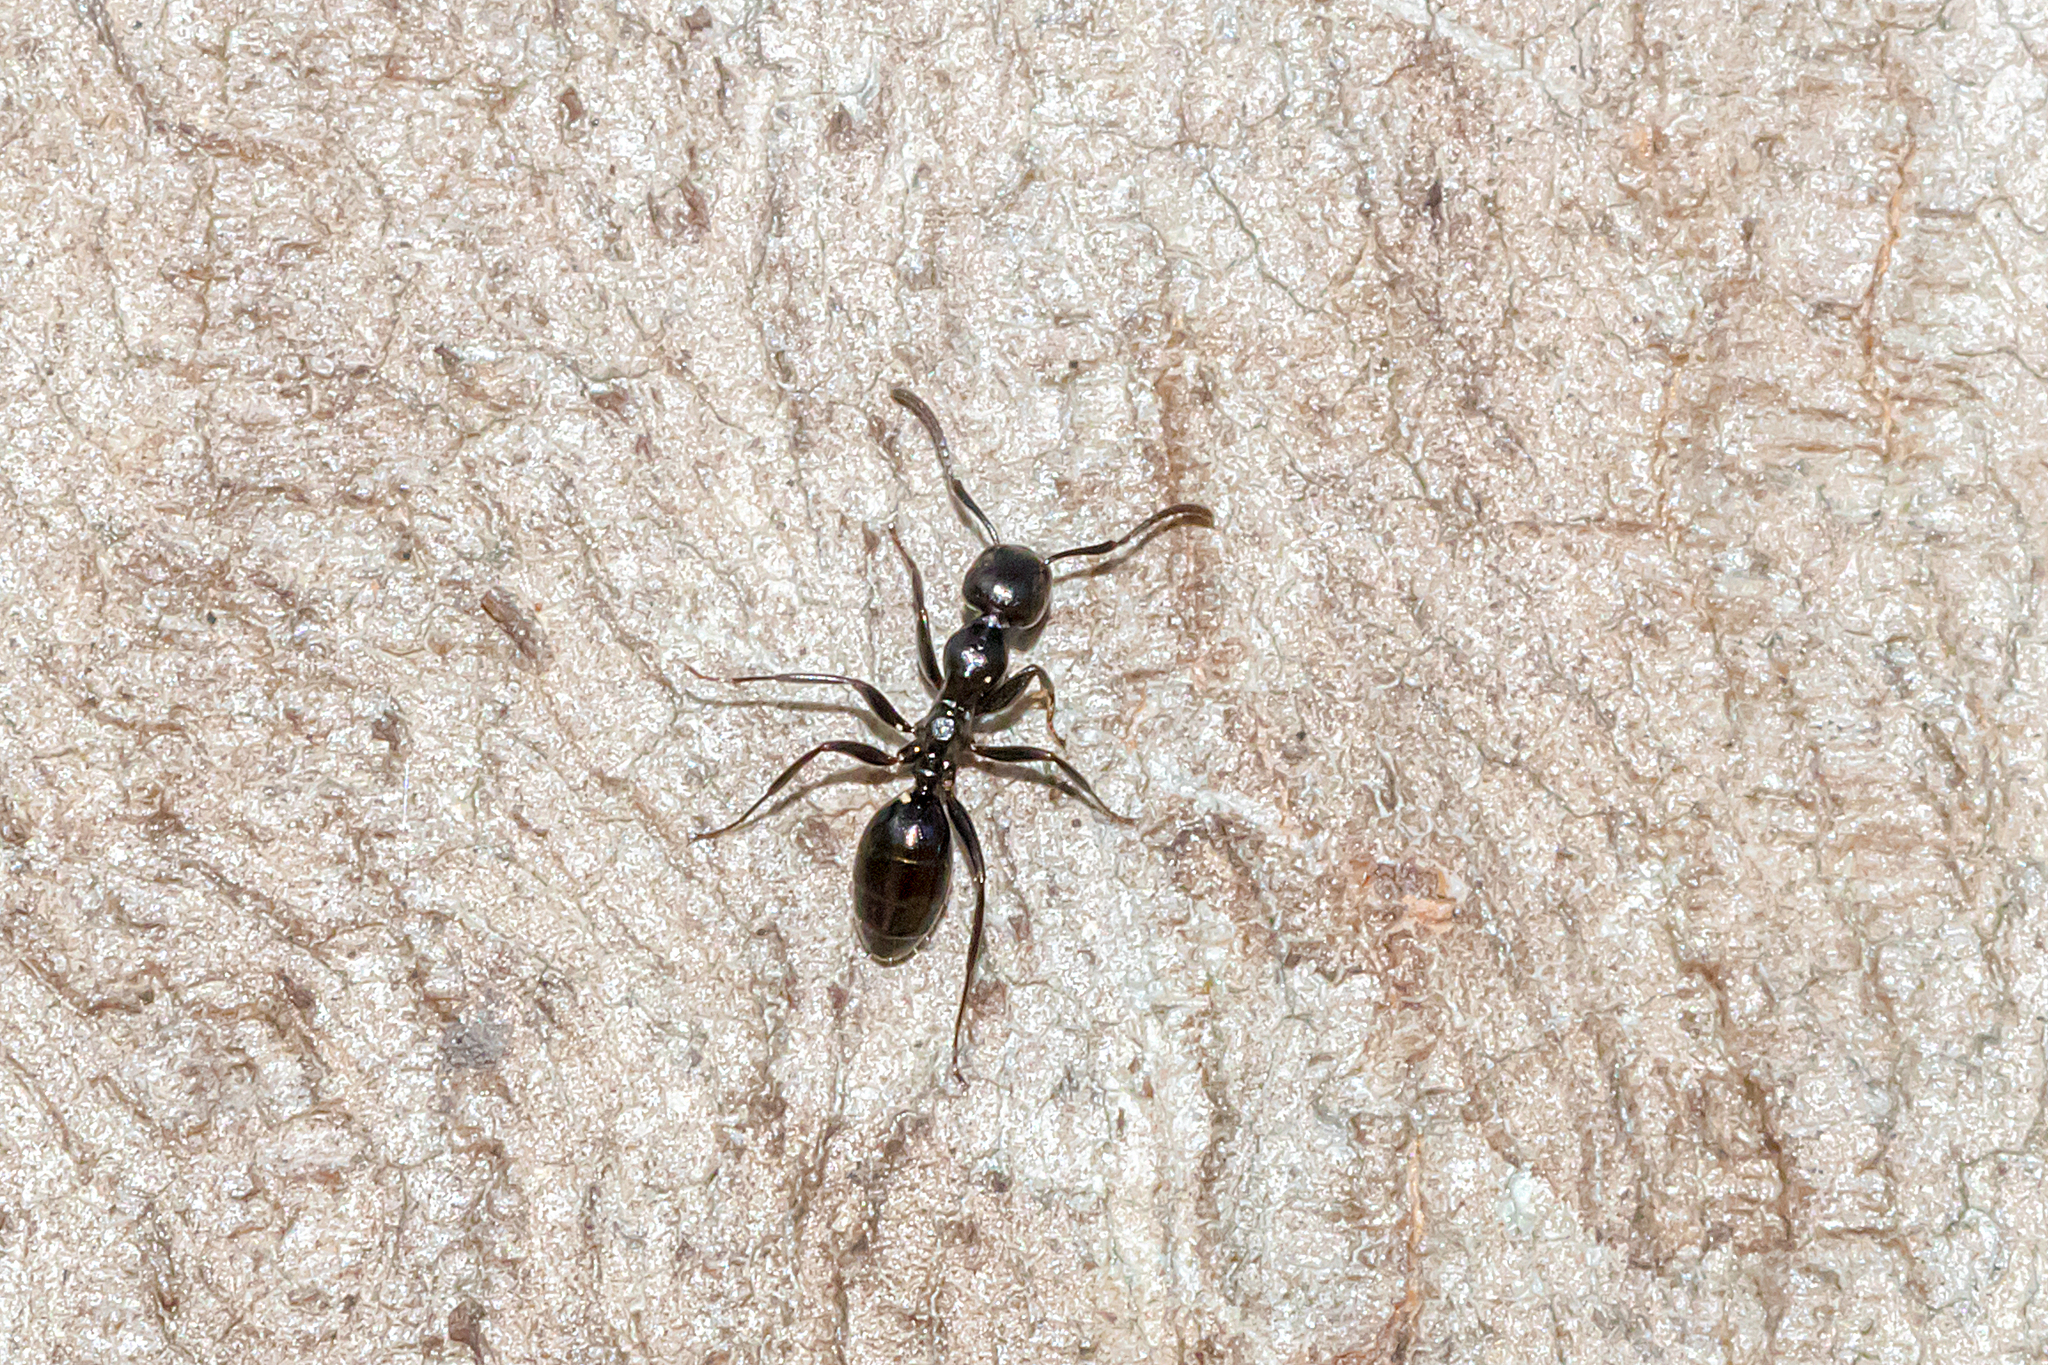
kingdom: Animalia
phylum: Arthropoda
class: Insecta
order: Hymenoptera
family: Formicidae
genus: Colobopsis
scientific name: Colobopsis gasseri
